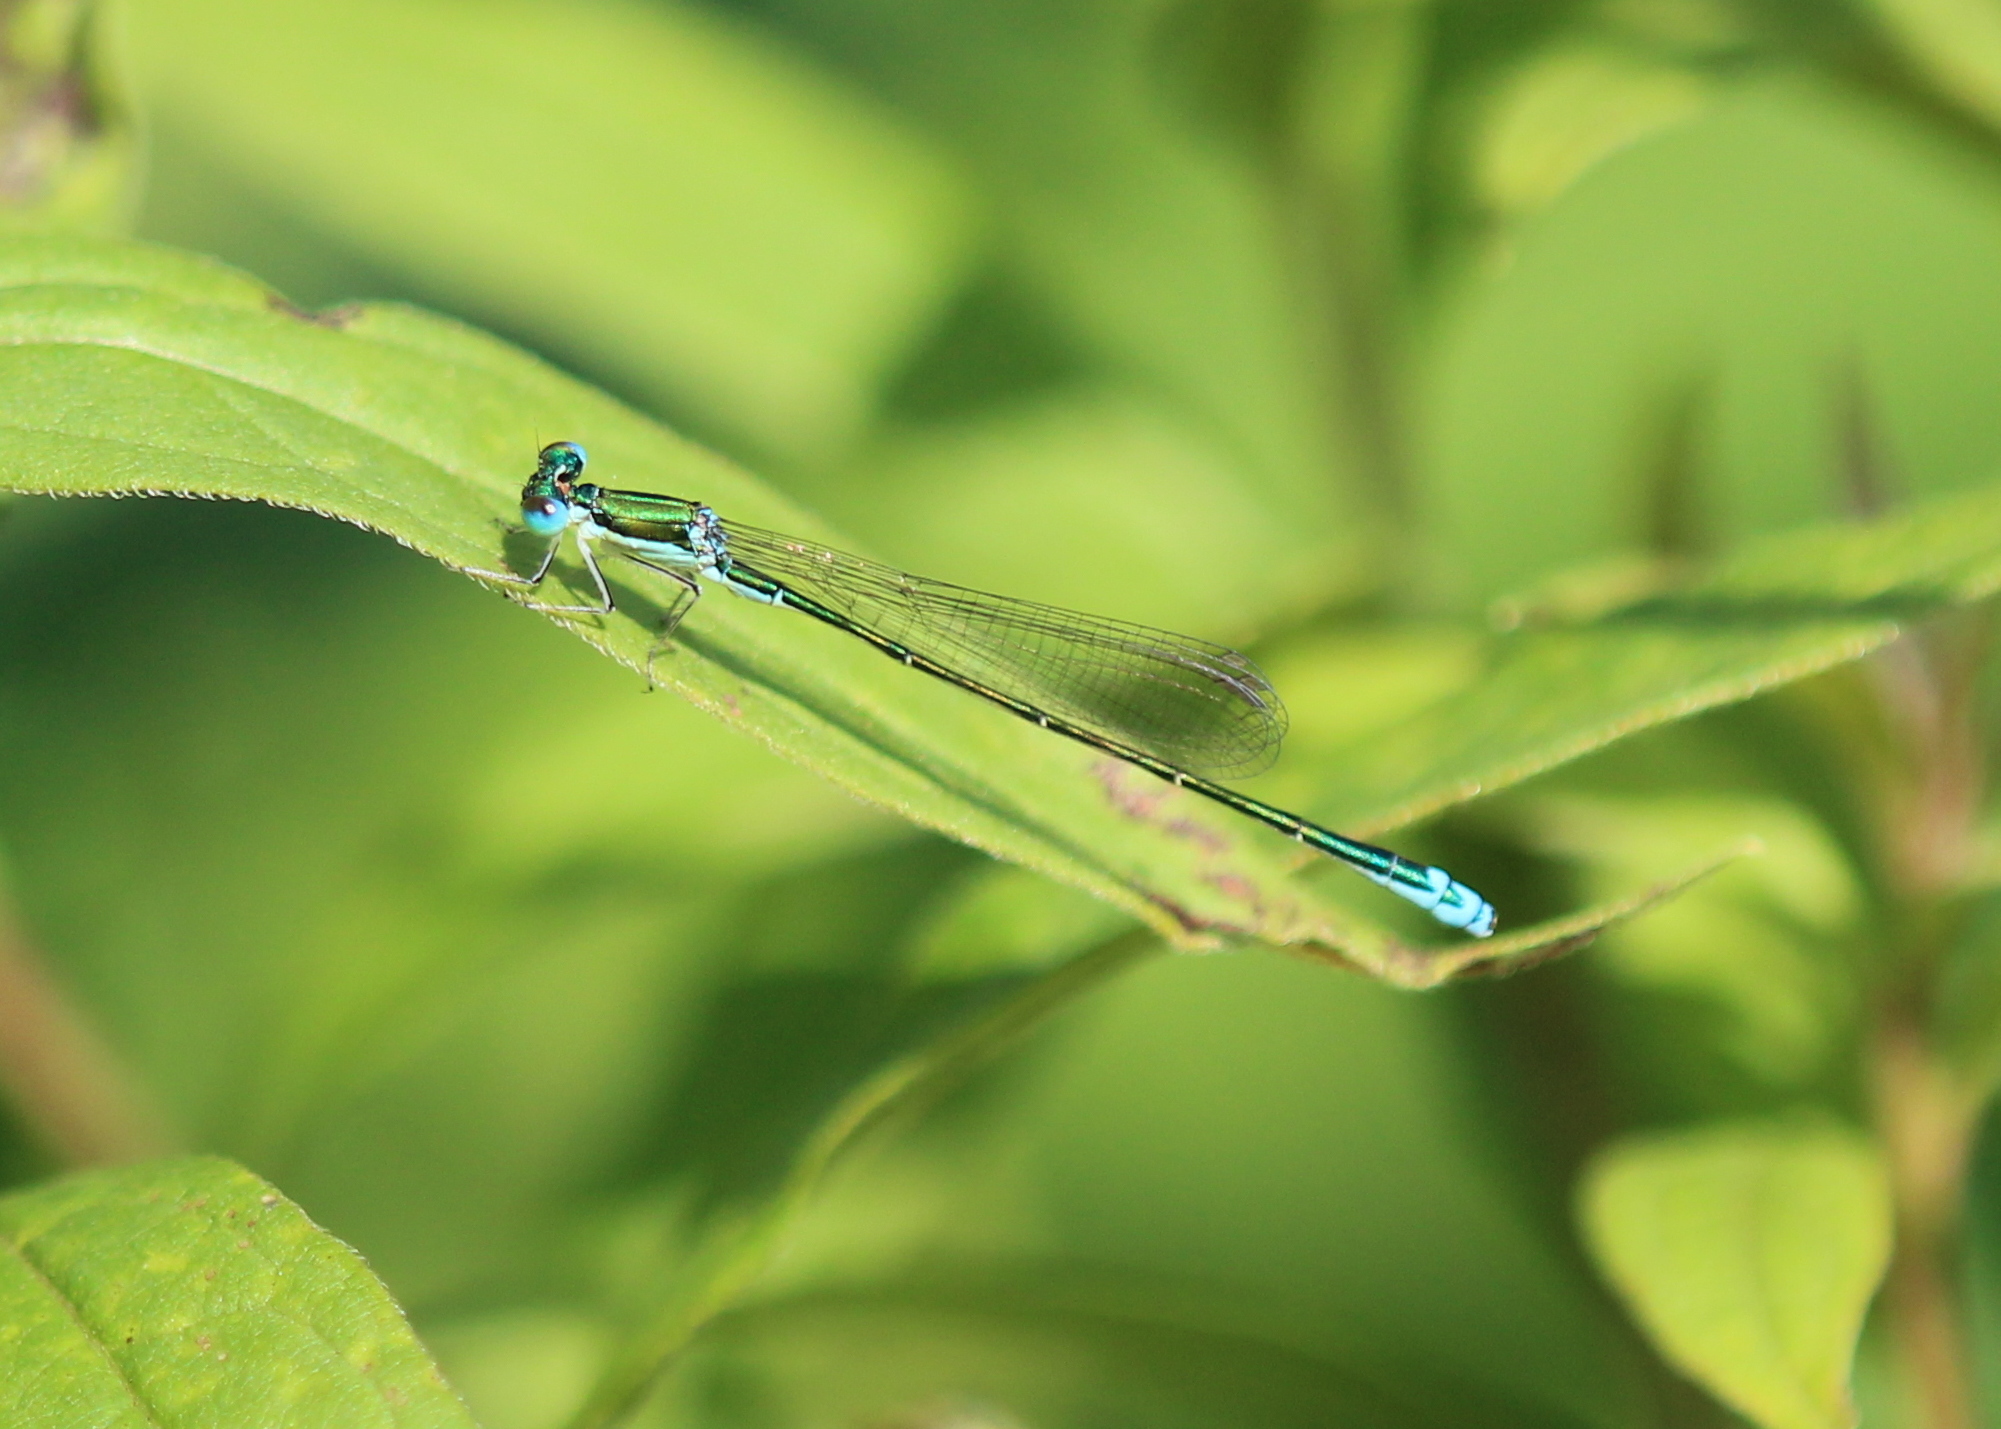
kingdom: Animalia
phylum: Arthropoda
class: Insecta
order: Odonata
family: Coenagrionidae
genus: Nehalennia
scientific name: Nehalennia irene
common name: Sedge sprite
